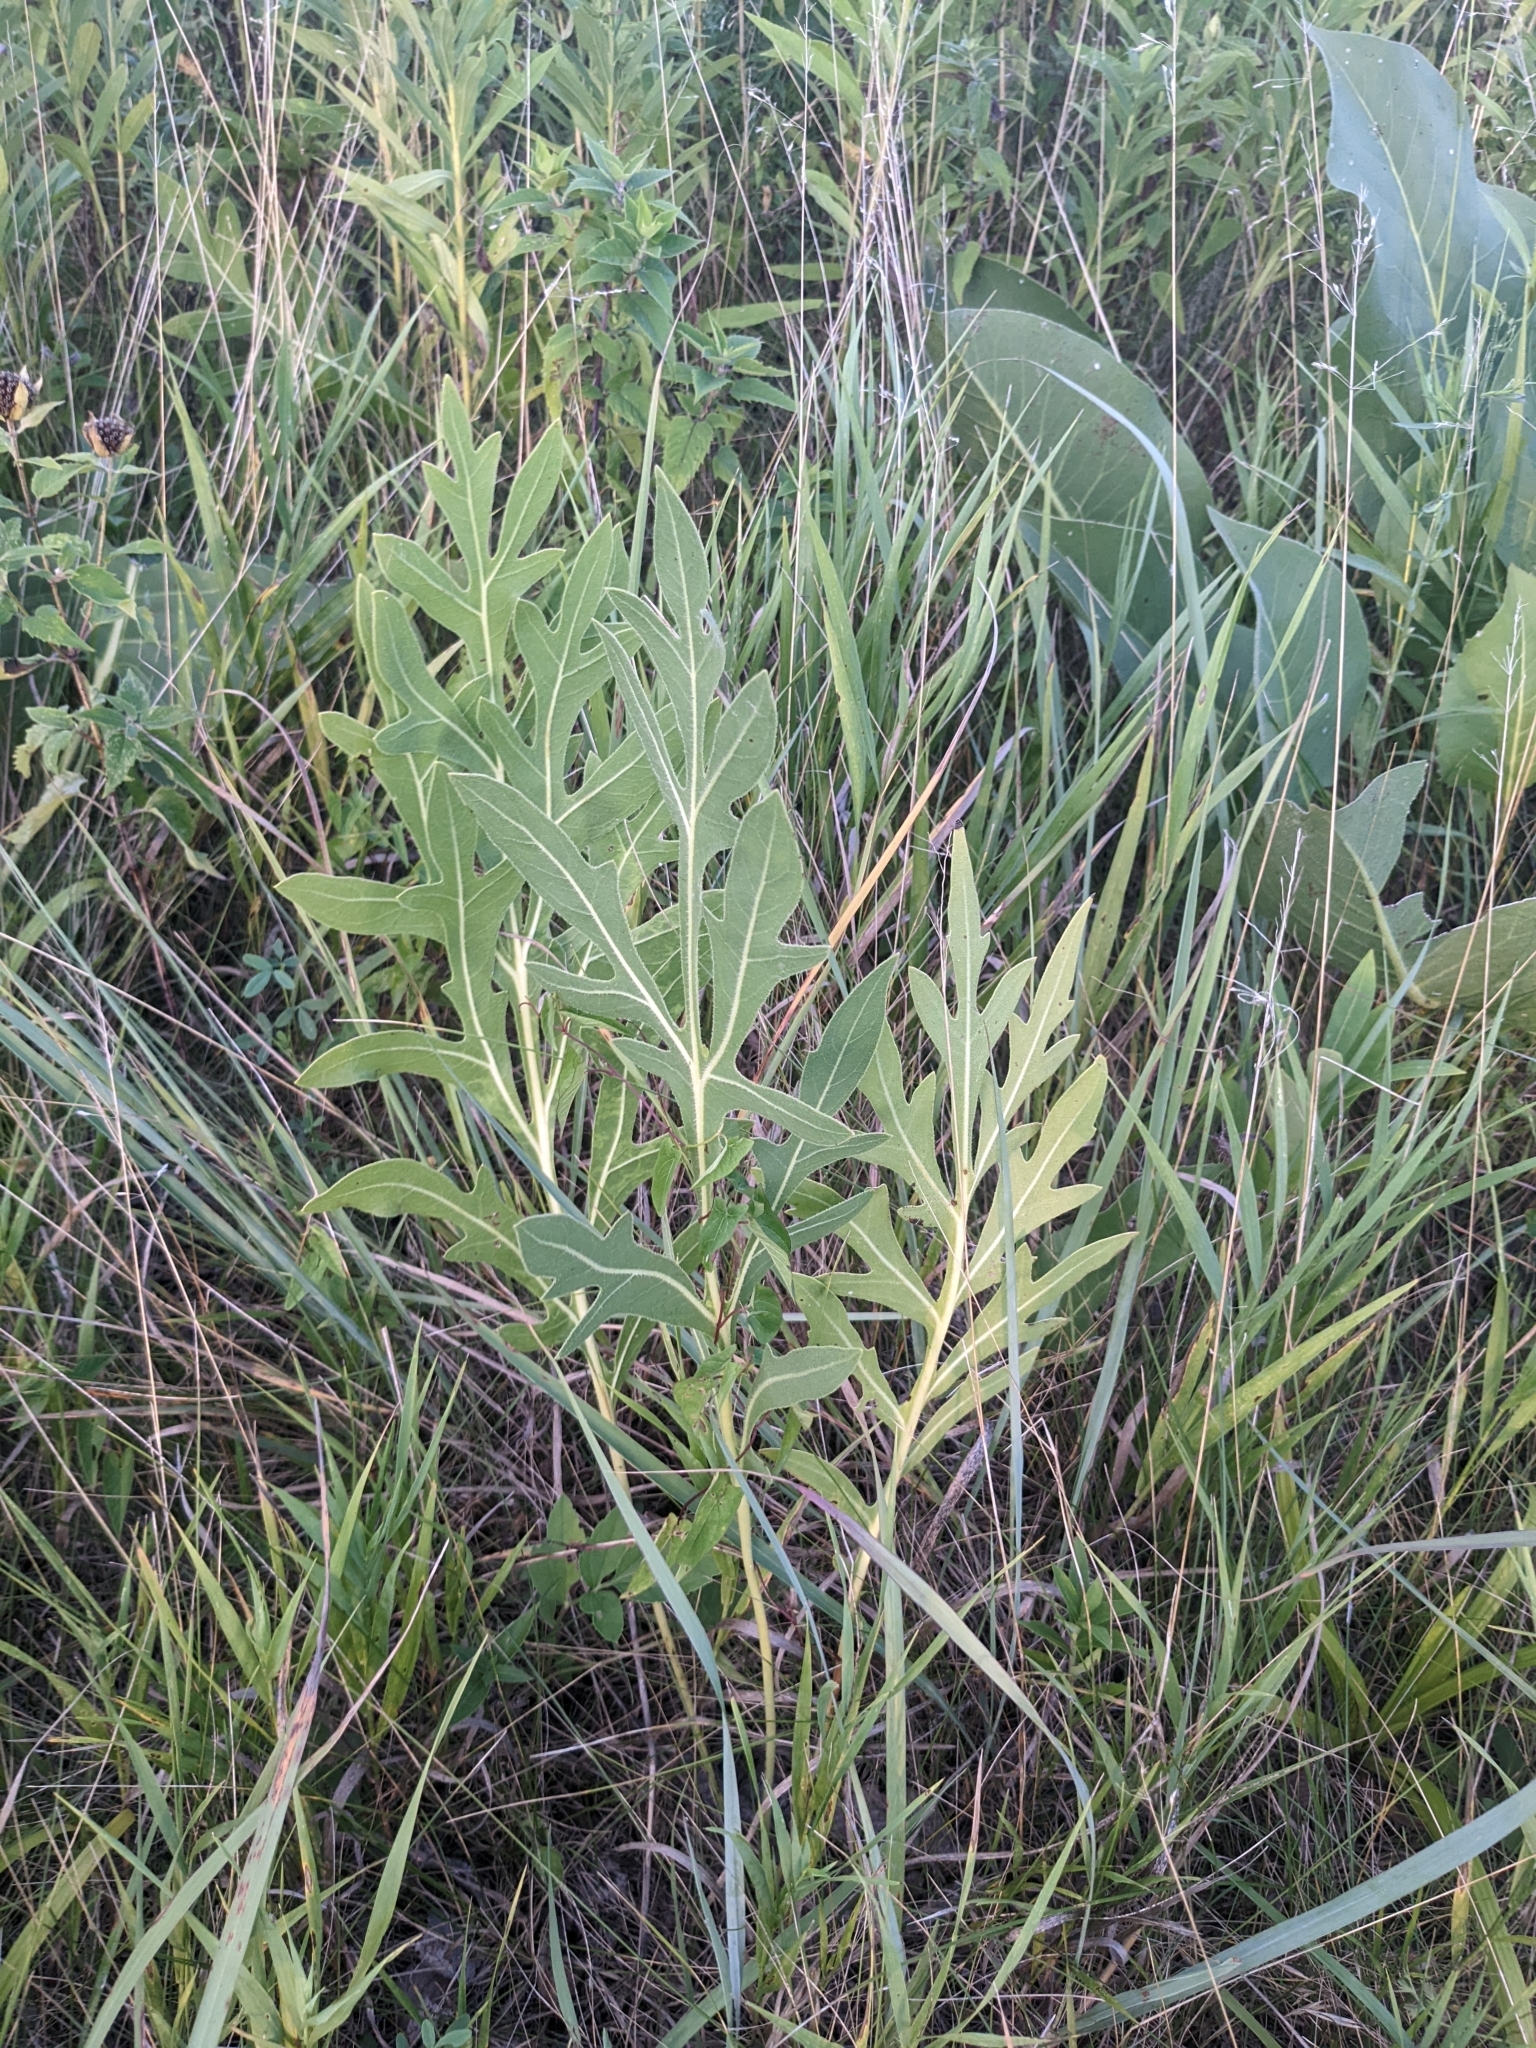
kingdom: Plantae
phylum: Tracheophyta
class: Magnoliopsida
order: Asterales
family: Asteraceae
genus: Silphium
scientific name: Silphium laciniatum
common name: Polarplant
